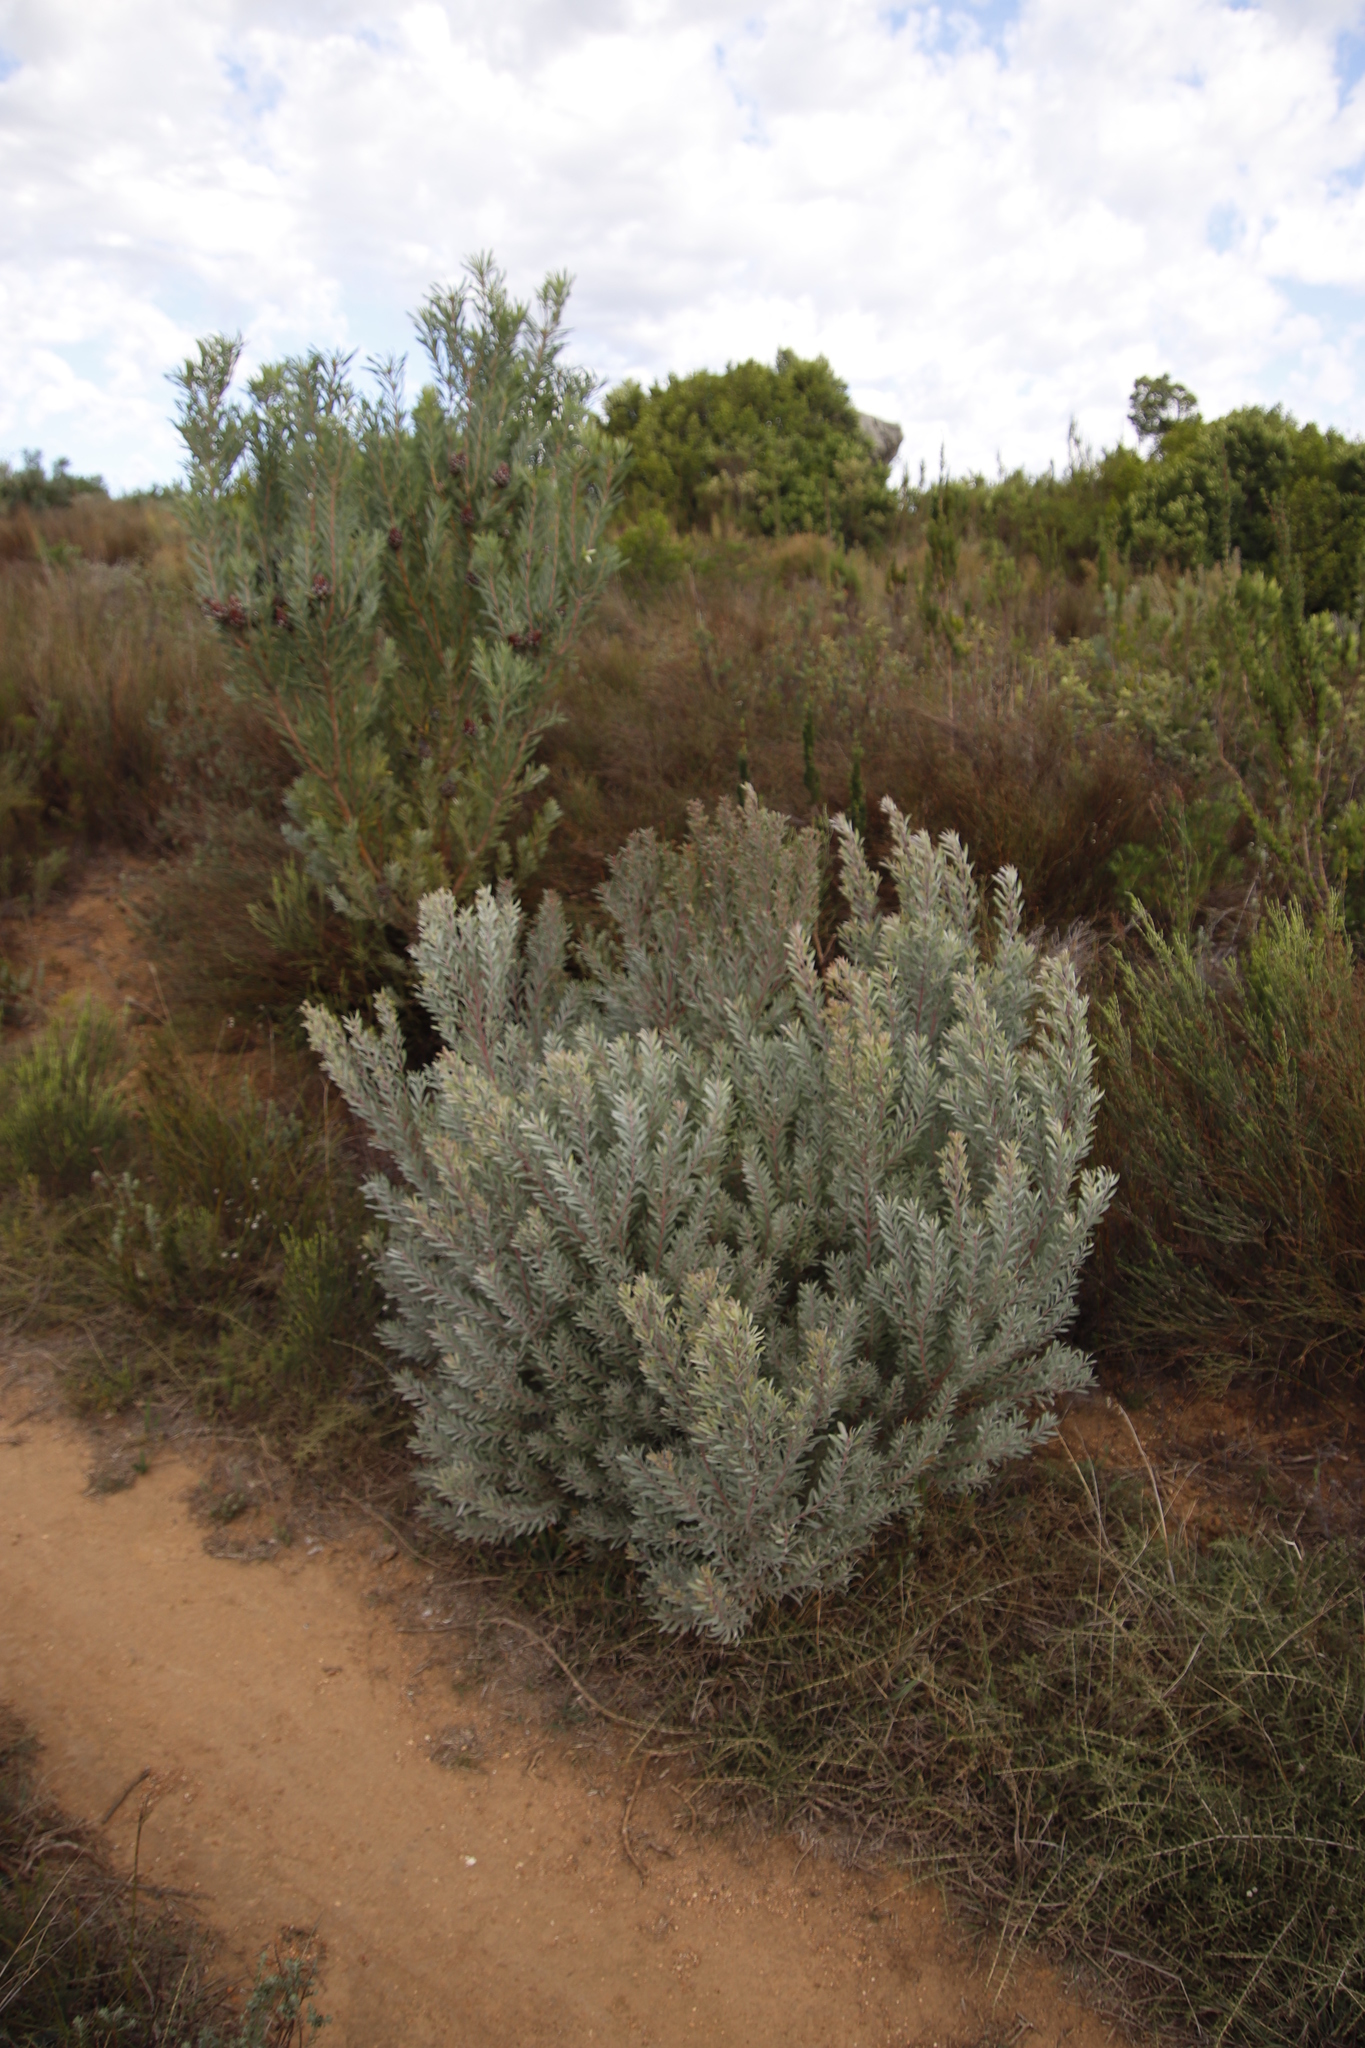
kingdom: Plantae
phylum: Tracheophyta
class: Magnoliopsida
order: Proteales
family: Proteaceae
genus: Leucadendron
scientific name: Leucadendron rubrum
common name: Spinning top
